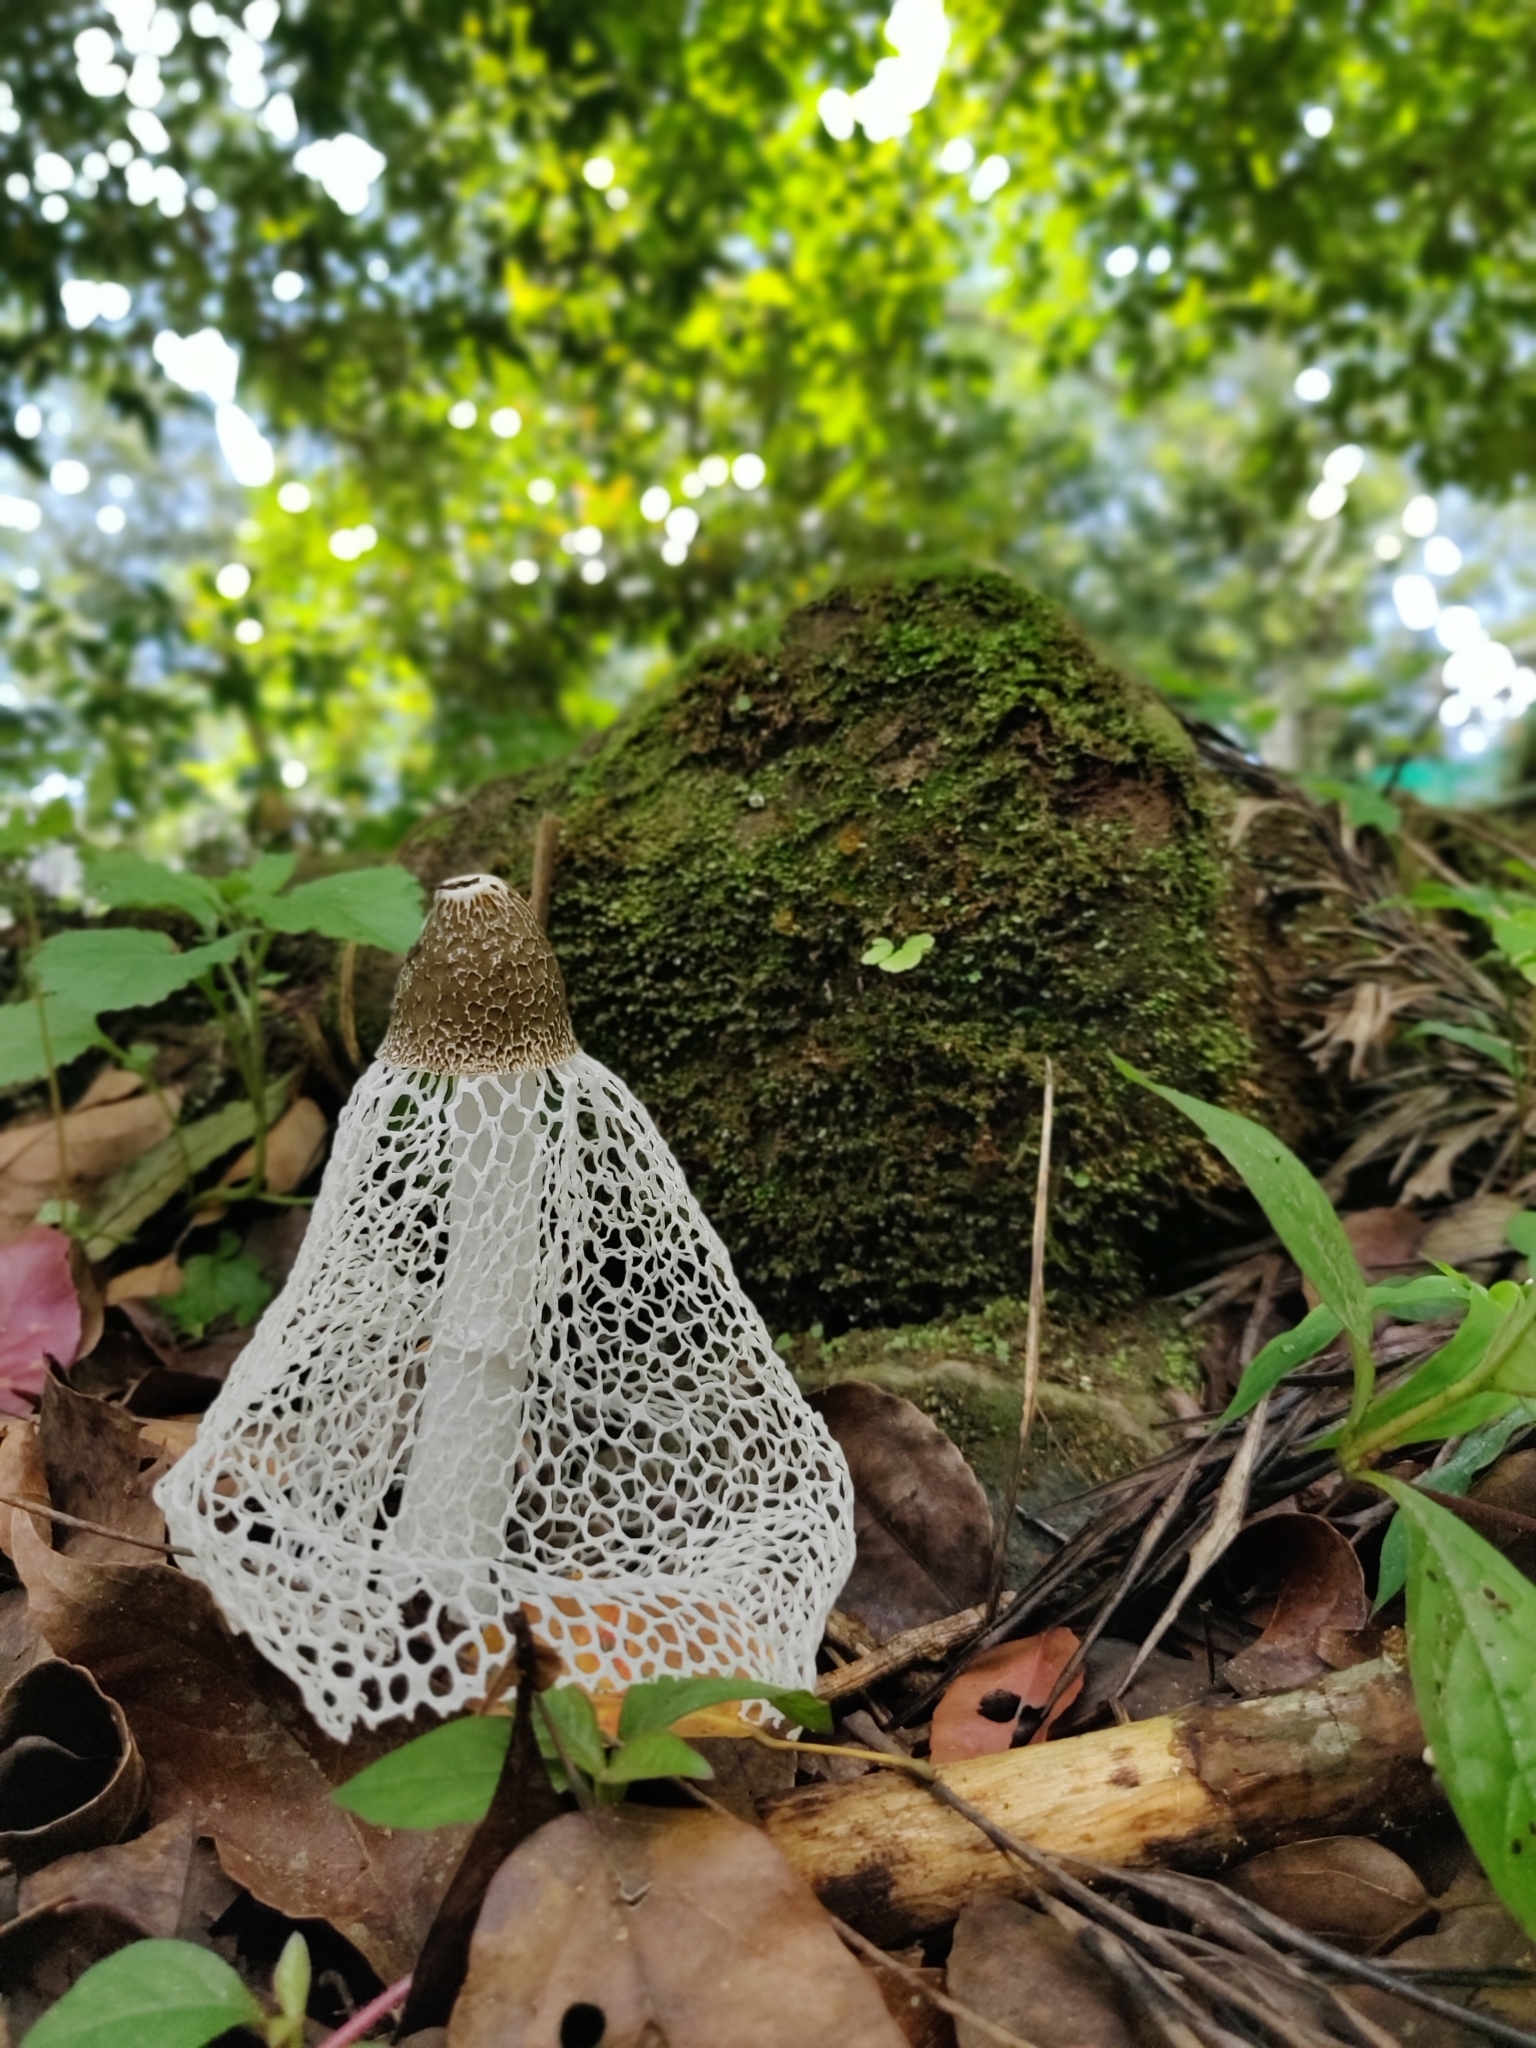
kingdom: Fungi
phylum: Basidiomycota
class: Agaricomycetes
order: Phallales
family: Phallaceae
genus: Phallus
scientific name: Phallus indusiatus
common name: Bridal veil stinkhorn
